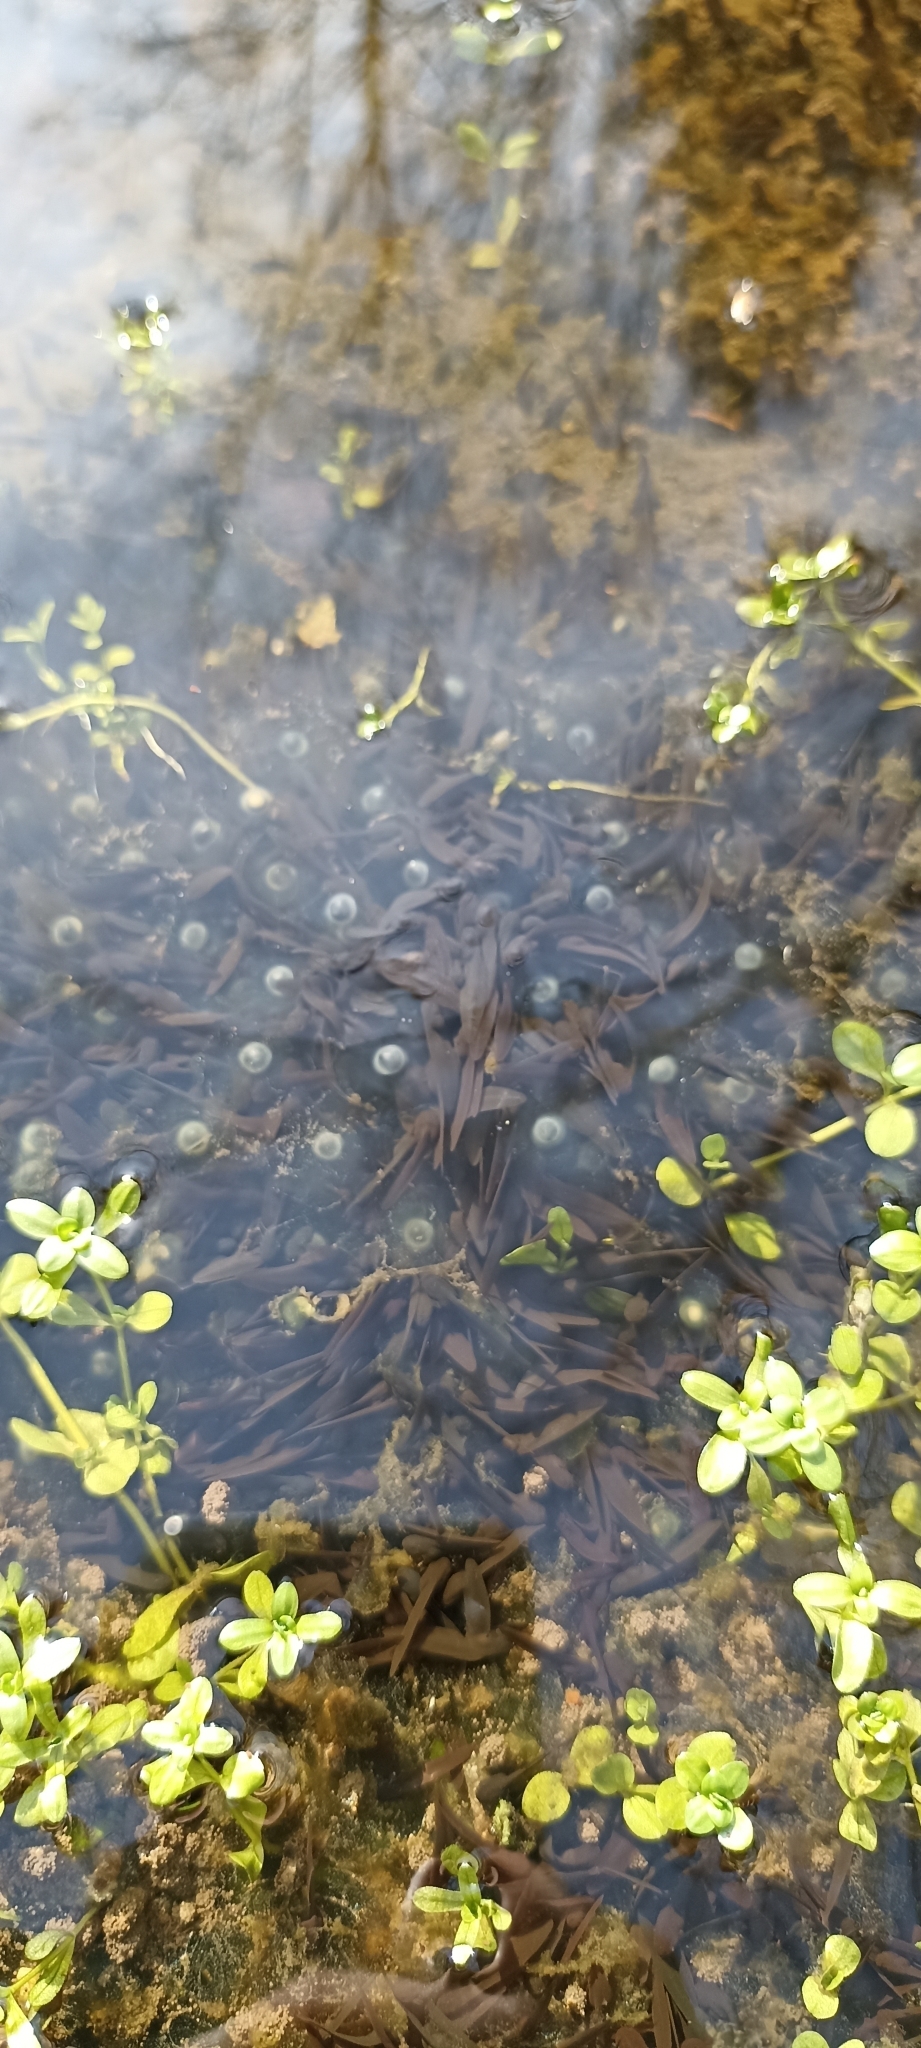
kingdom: Animalia
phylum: Chordata
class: Amphibia
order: Anura
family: Ranidae
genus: Rana
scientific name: Rana temporaria
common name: Common frog
